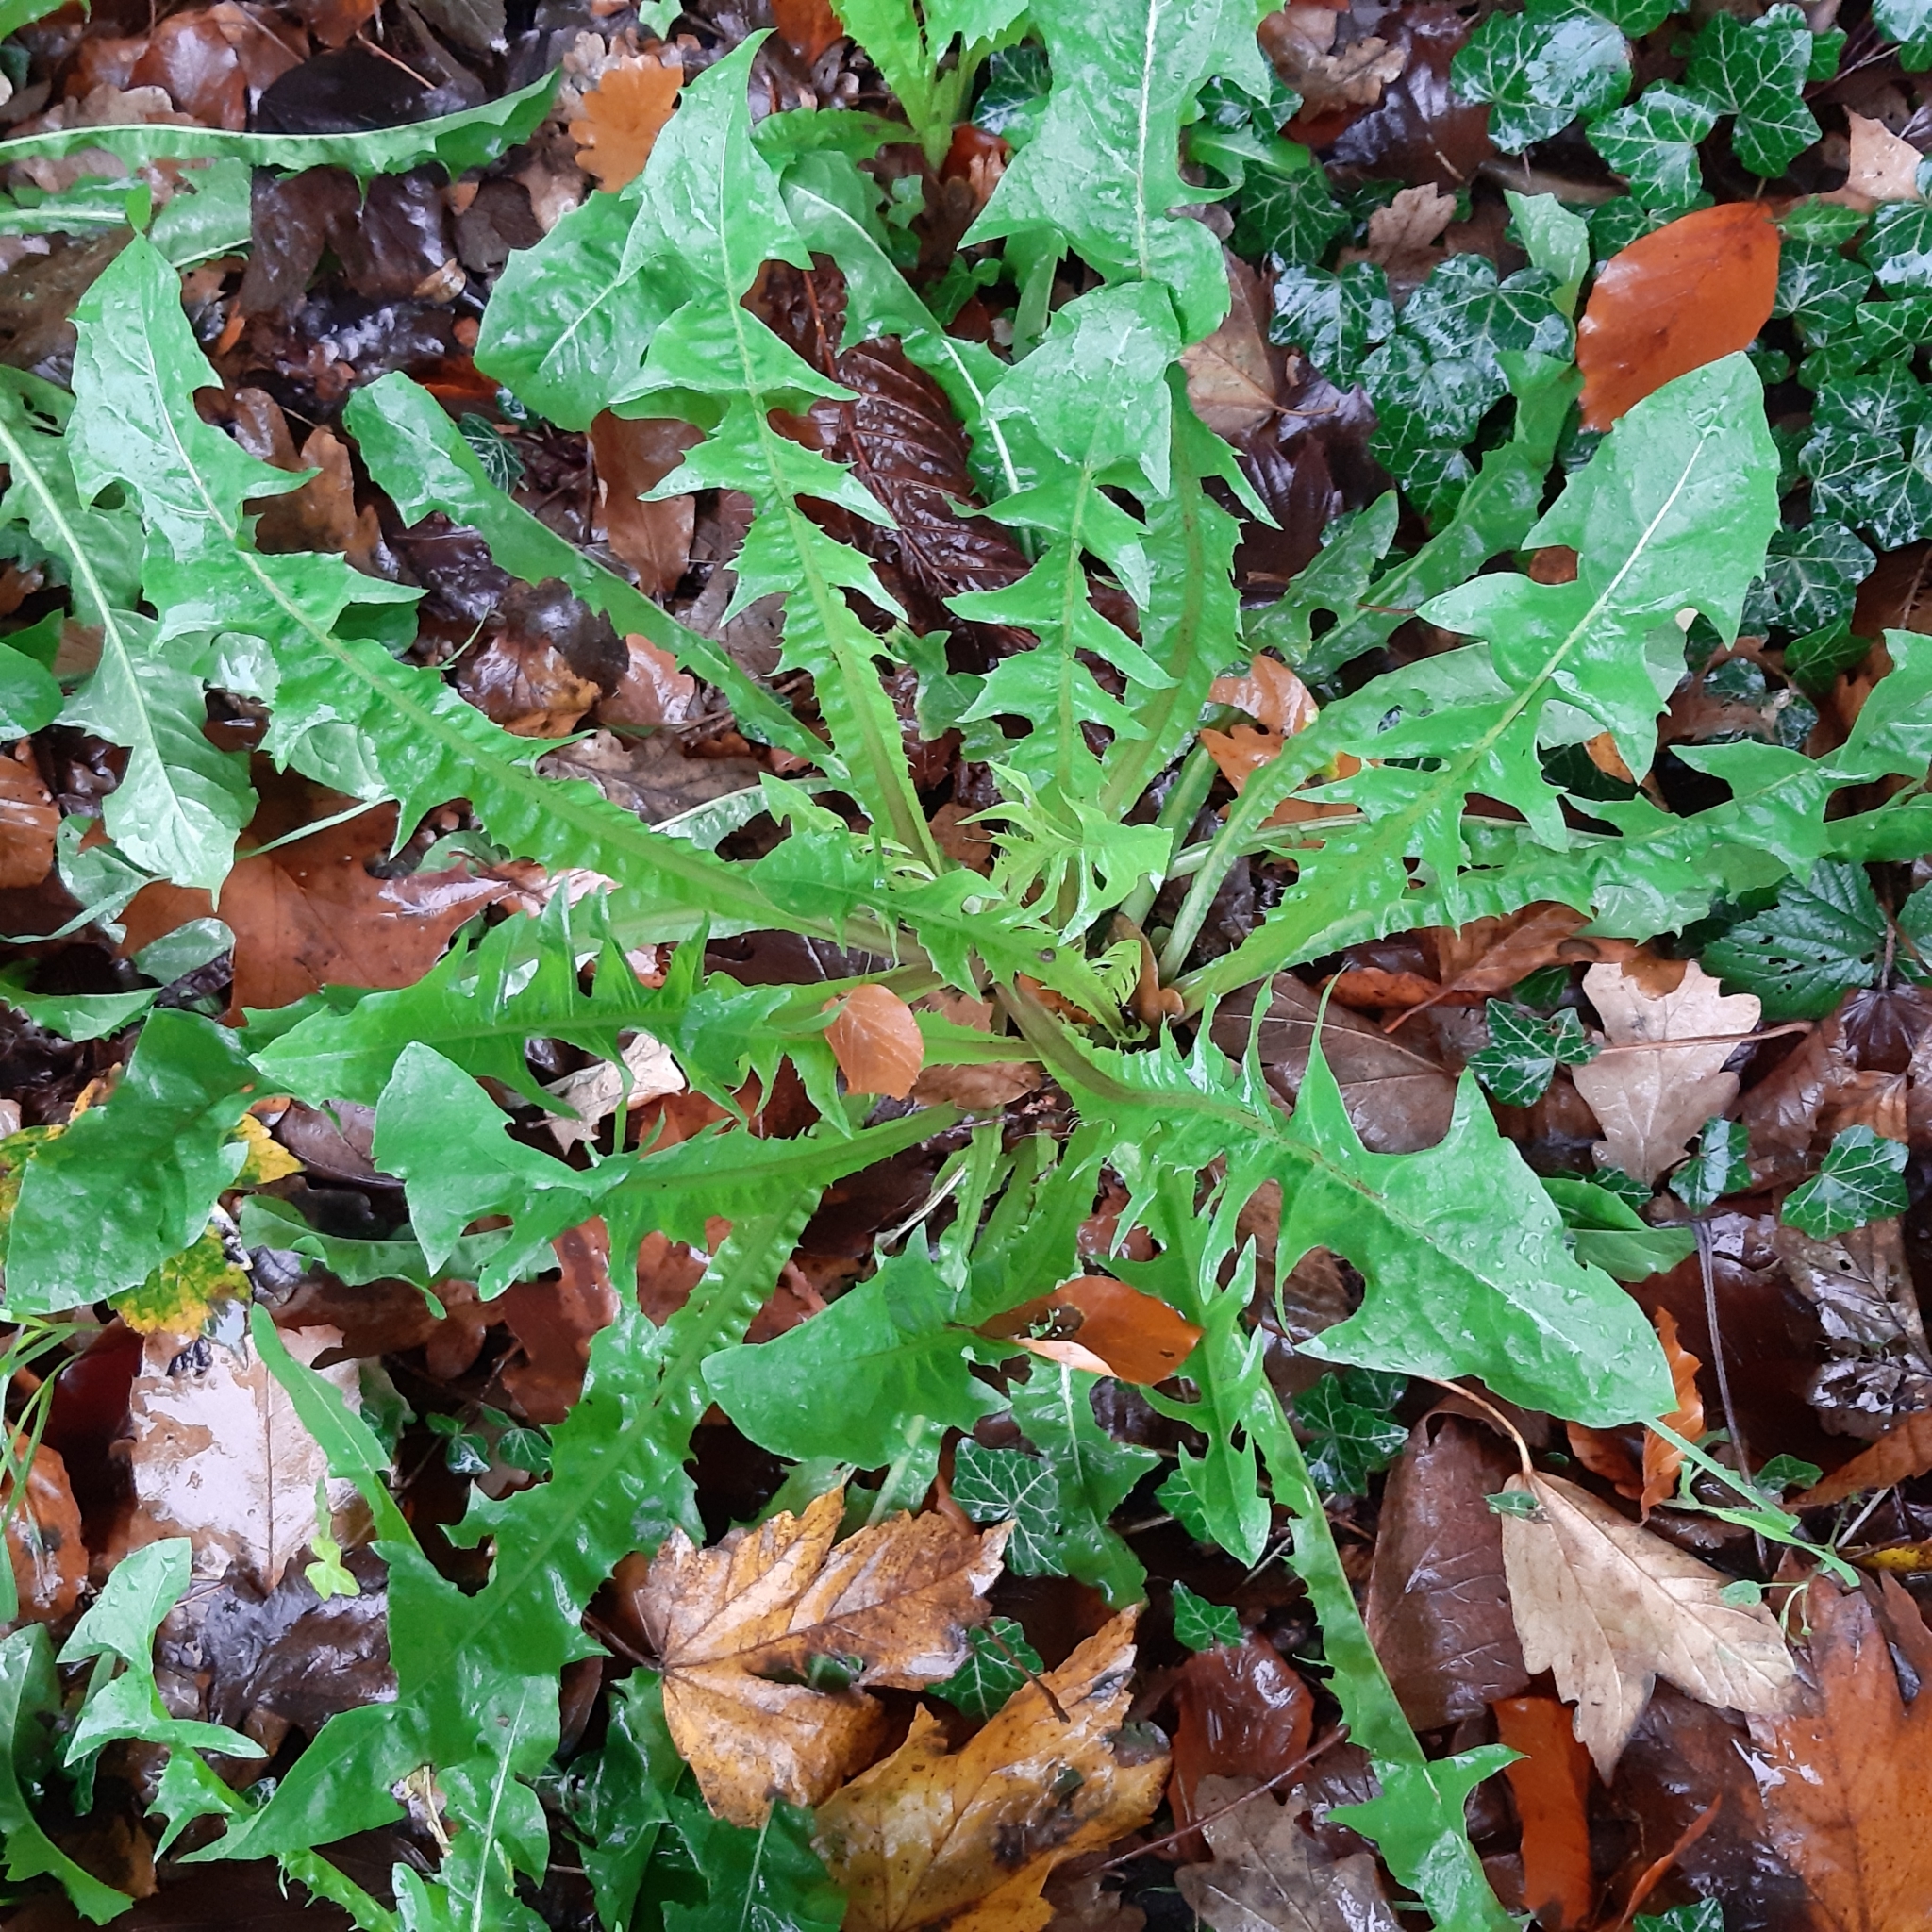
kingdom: Plantae
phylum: Tracheophyta
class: Magnoliopsida
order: Asterales
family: Asteraceae
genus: Taraxacum
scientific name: Taraxacum officinale
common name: Common dandelion
